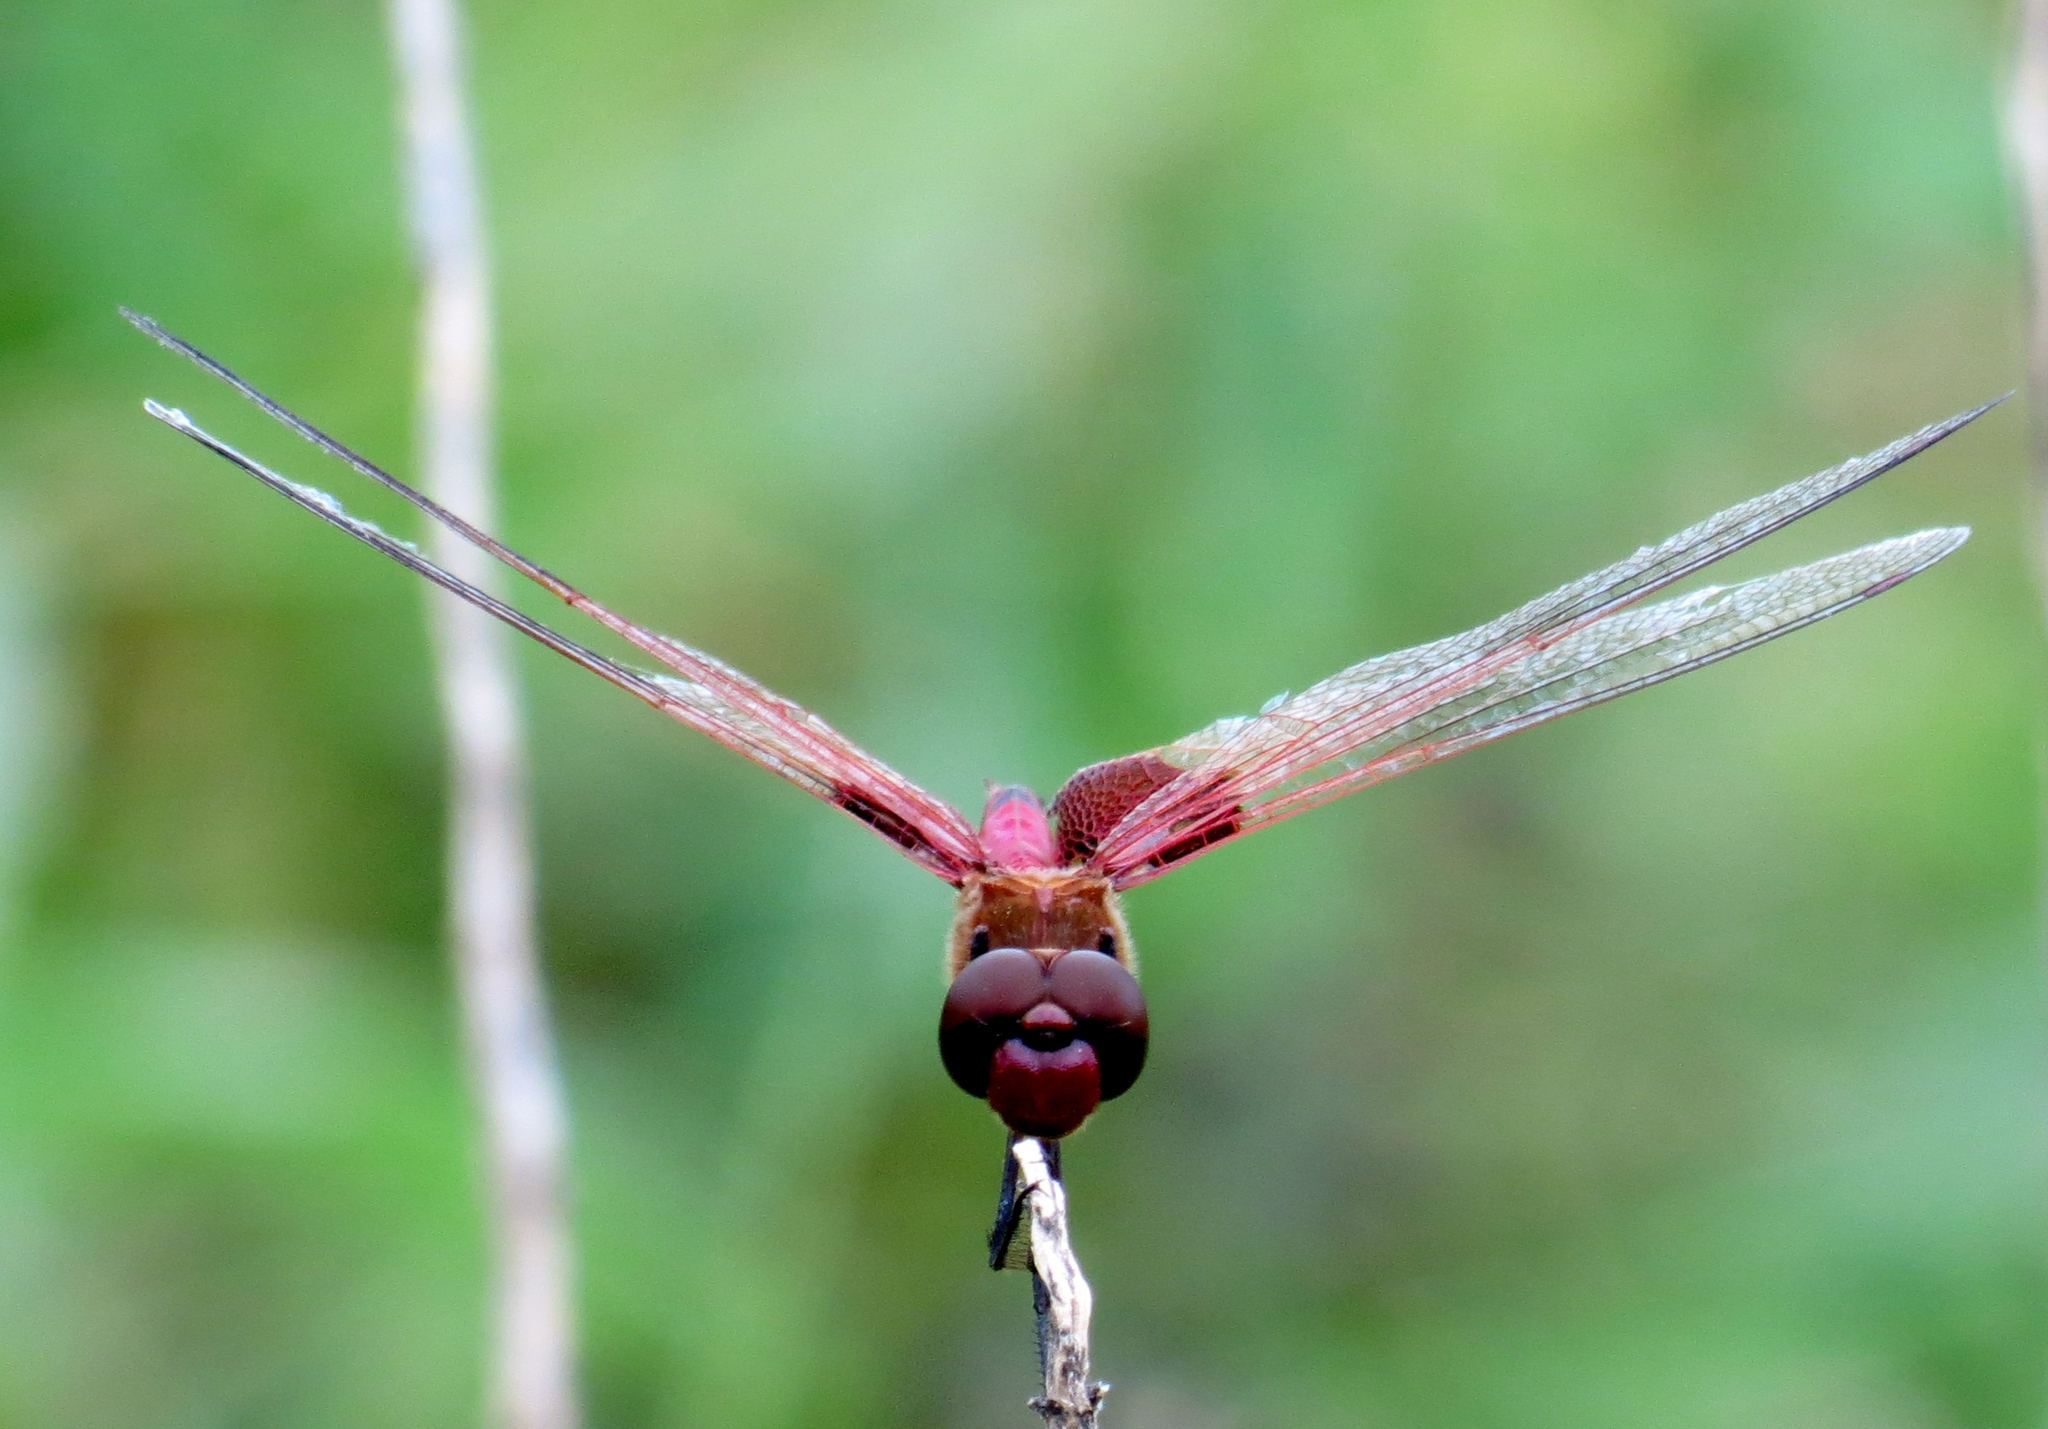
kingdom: Animalia
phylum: Arthropoda
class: Insecta
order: Odonata
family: Libellulidae
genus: Tramea
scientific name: Tramea onusta
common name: Red saddlebags
